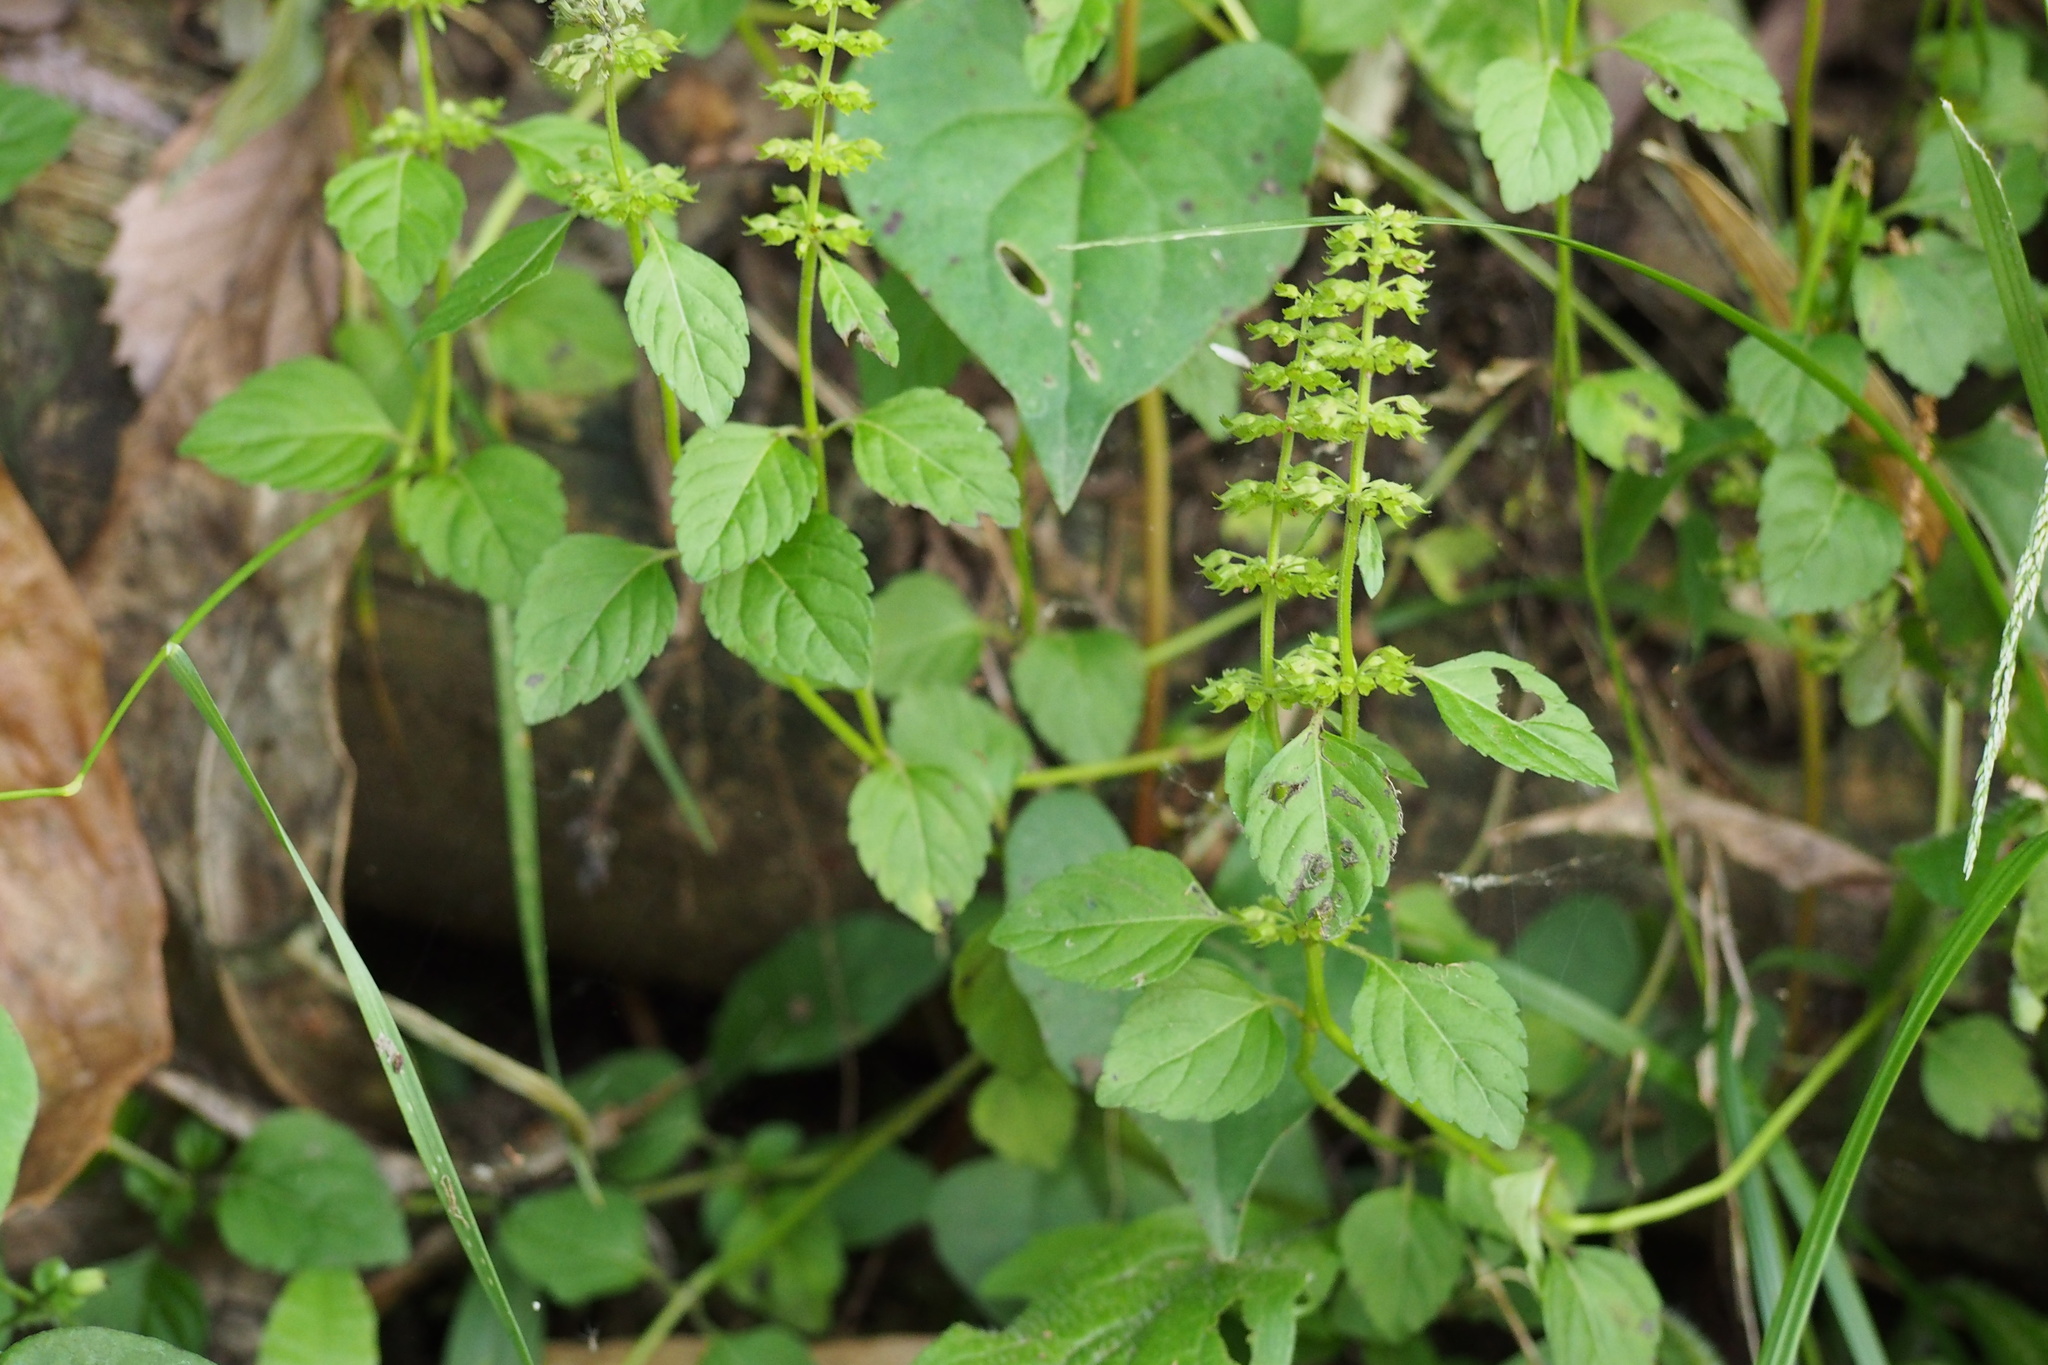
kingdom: Plantae
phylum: Tracheophyta
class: Magnoliopsida
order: Lamiales
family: Lamiaceae
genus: Clinopodium
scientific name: Clinopodium gracile
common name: Slender wild basil
